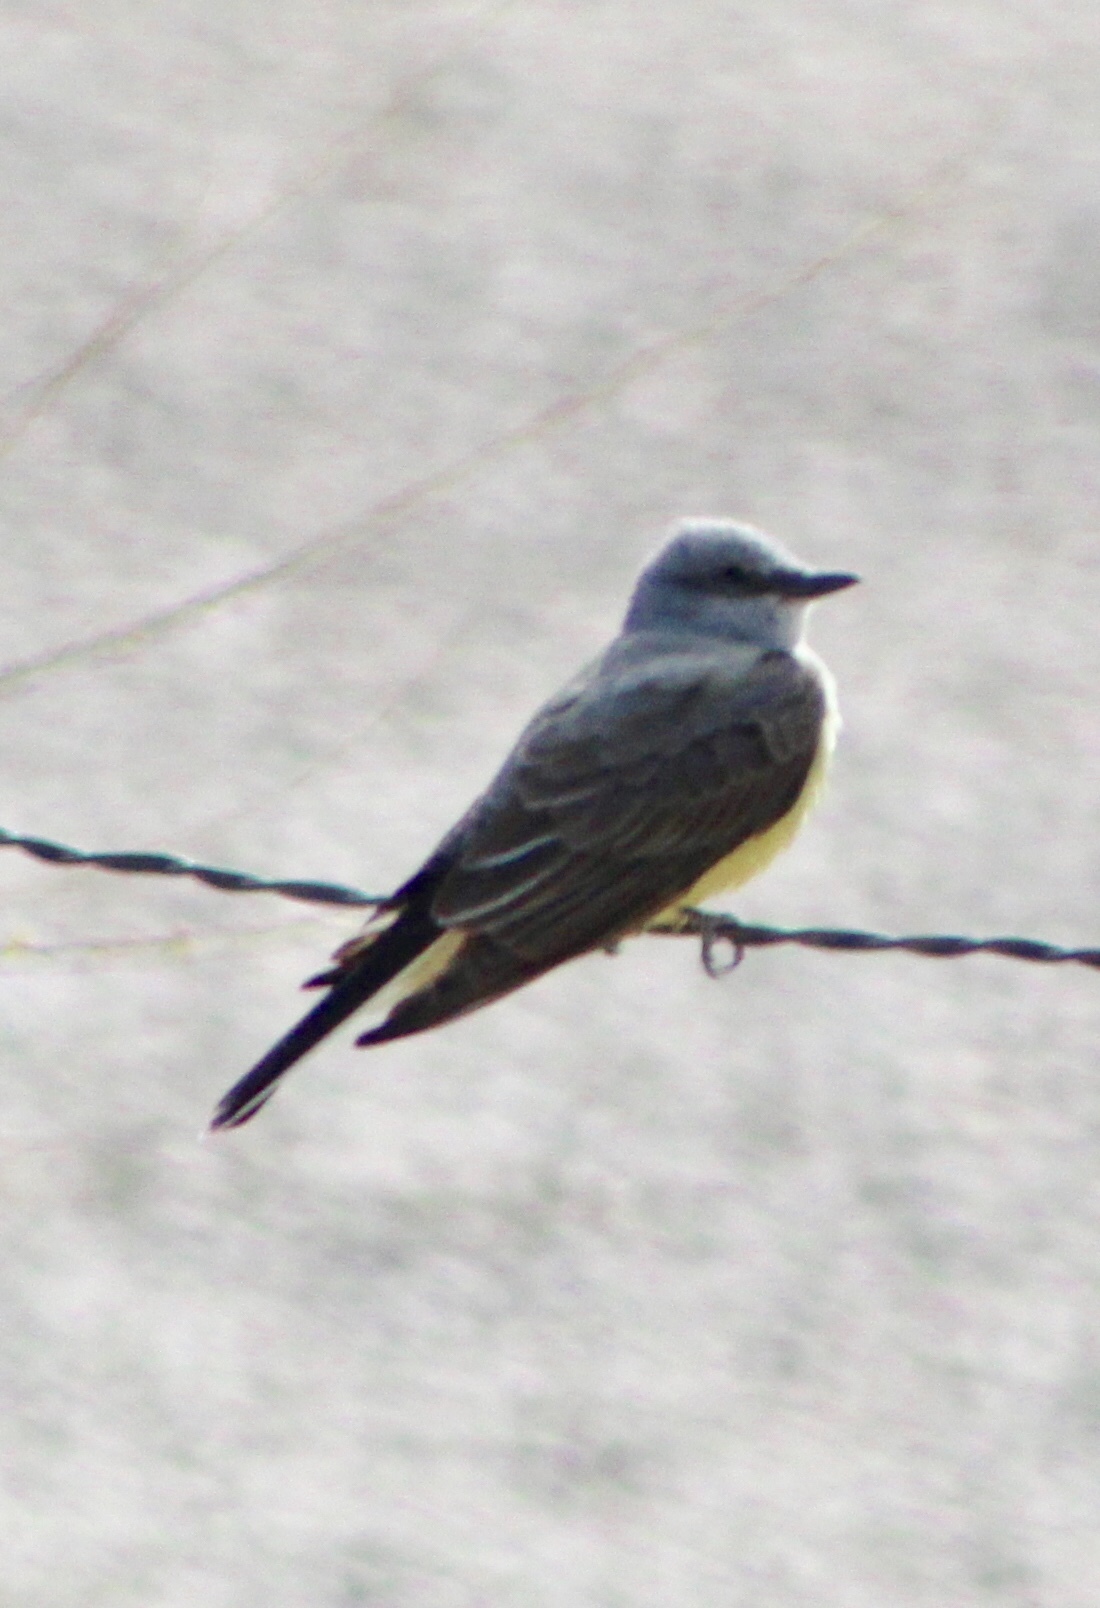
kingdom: Animalia
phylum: Chordata
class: Aves
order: Passeriformes
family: Tyrannidae
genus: Tyrannus
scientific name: Tyrannus verticalis
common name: Western kingbird
